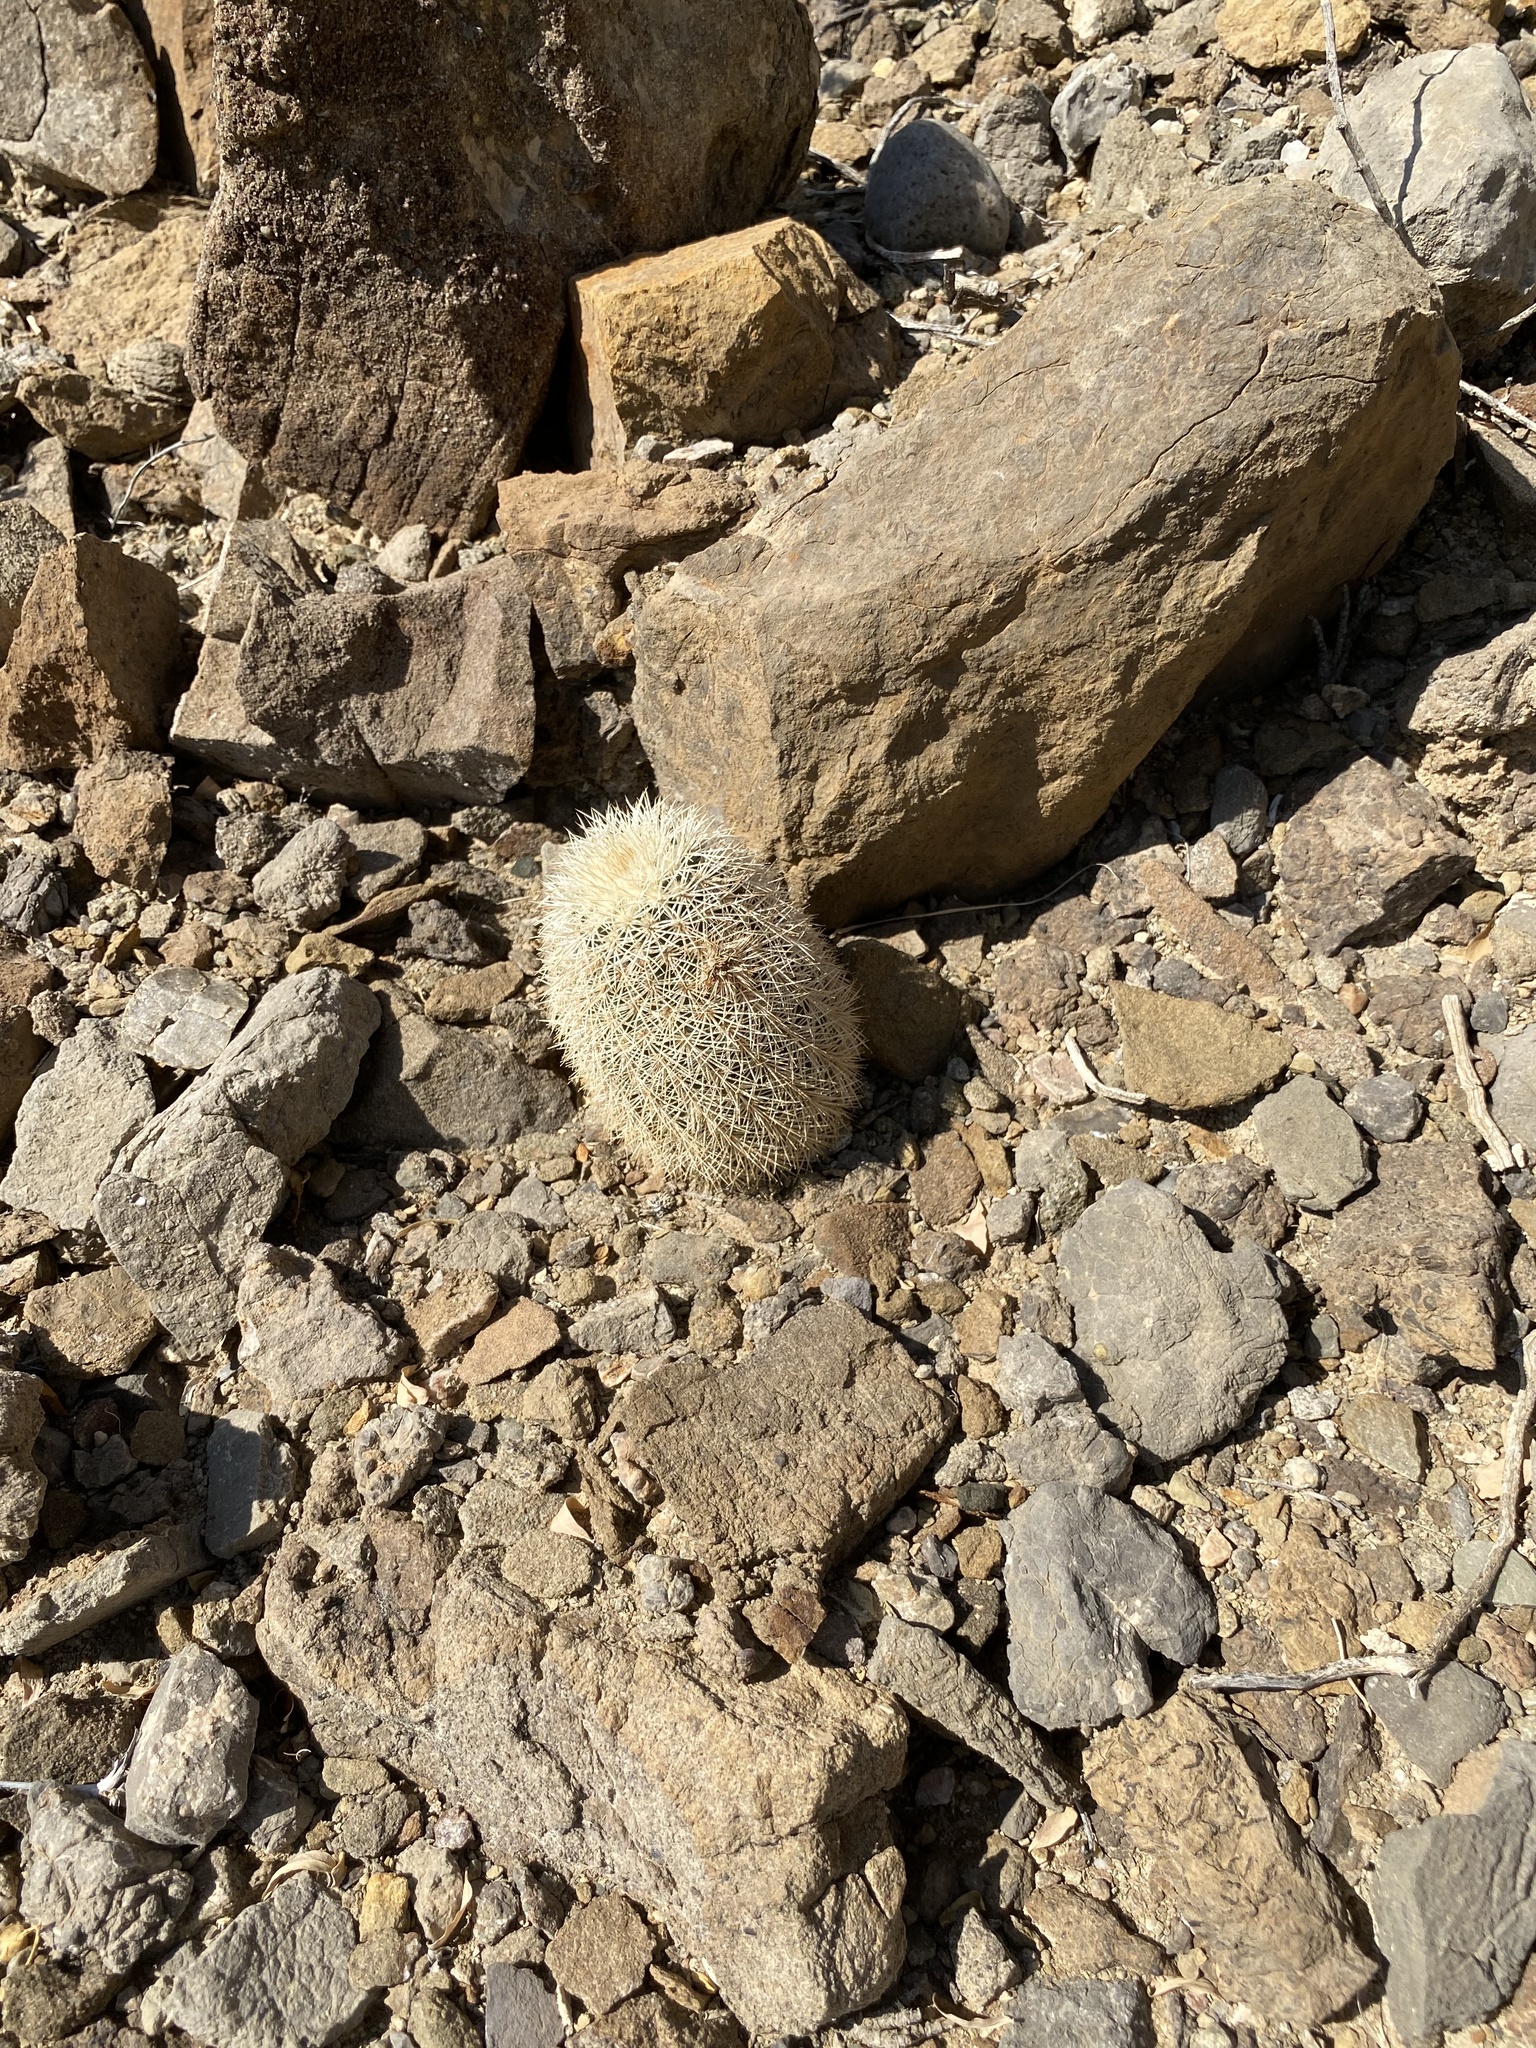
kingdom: Plantae
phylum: Tracheophyta
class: Magnoliopsida
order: Caryophyllales
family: Cactaceae
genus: Echinocereus
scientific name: Echinocereus dasyacanthus
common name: Spiny hedgehog cactus
